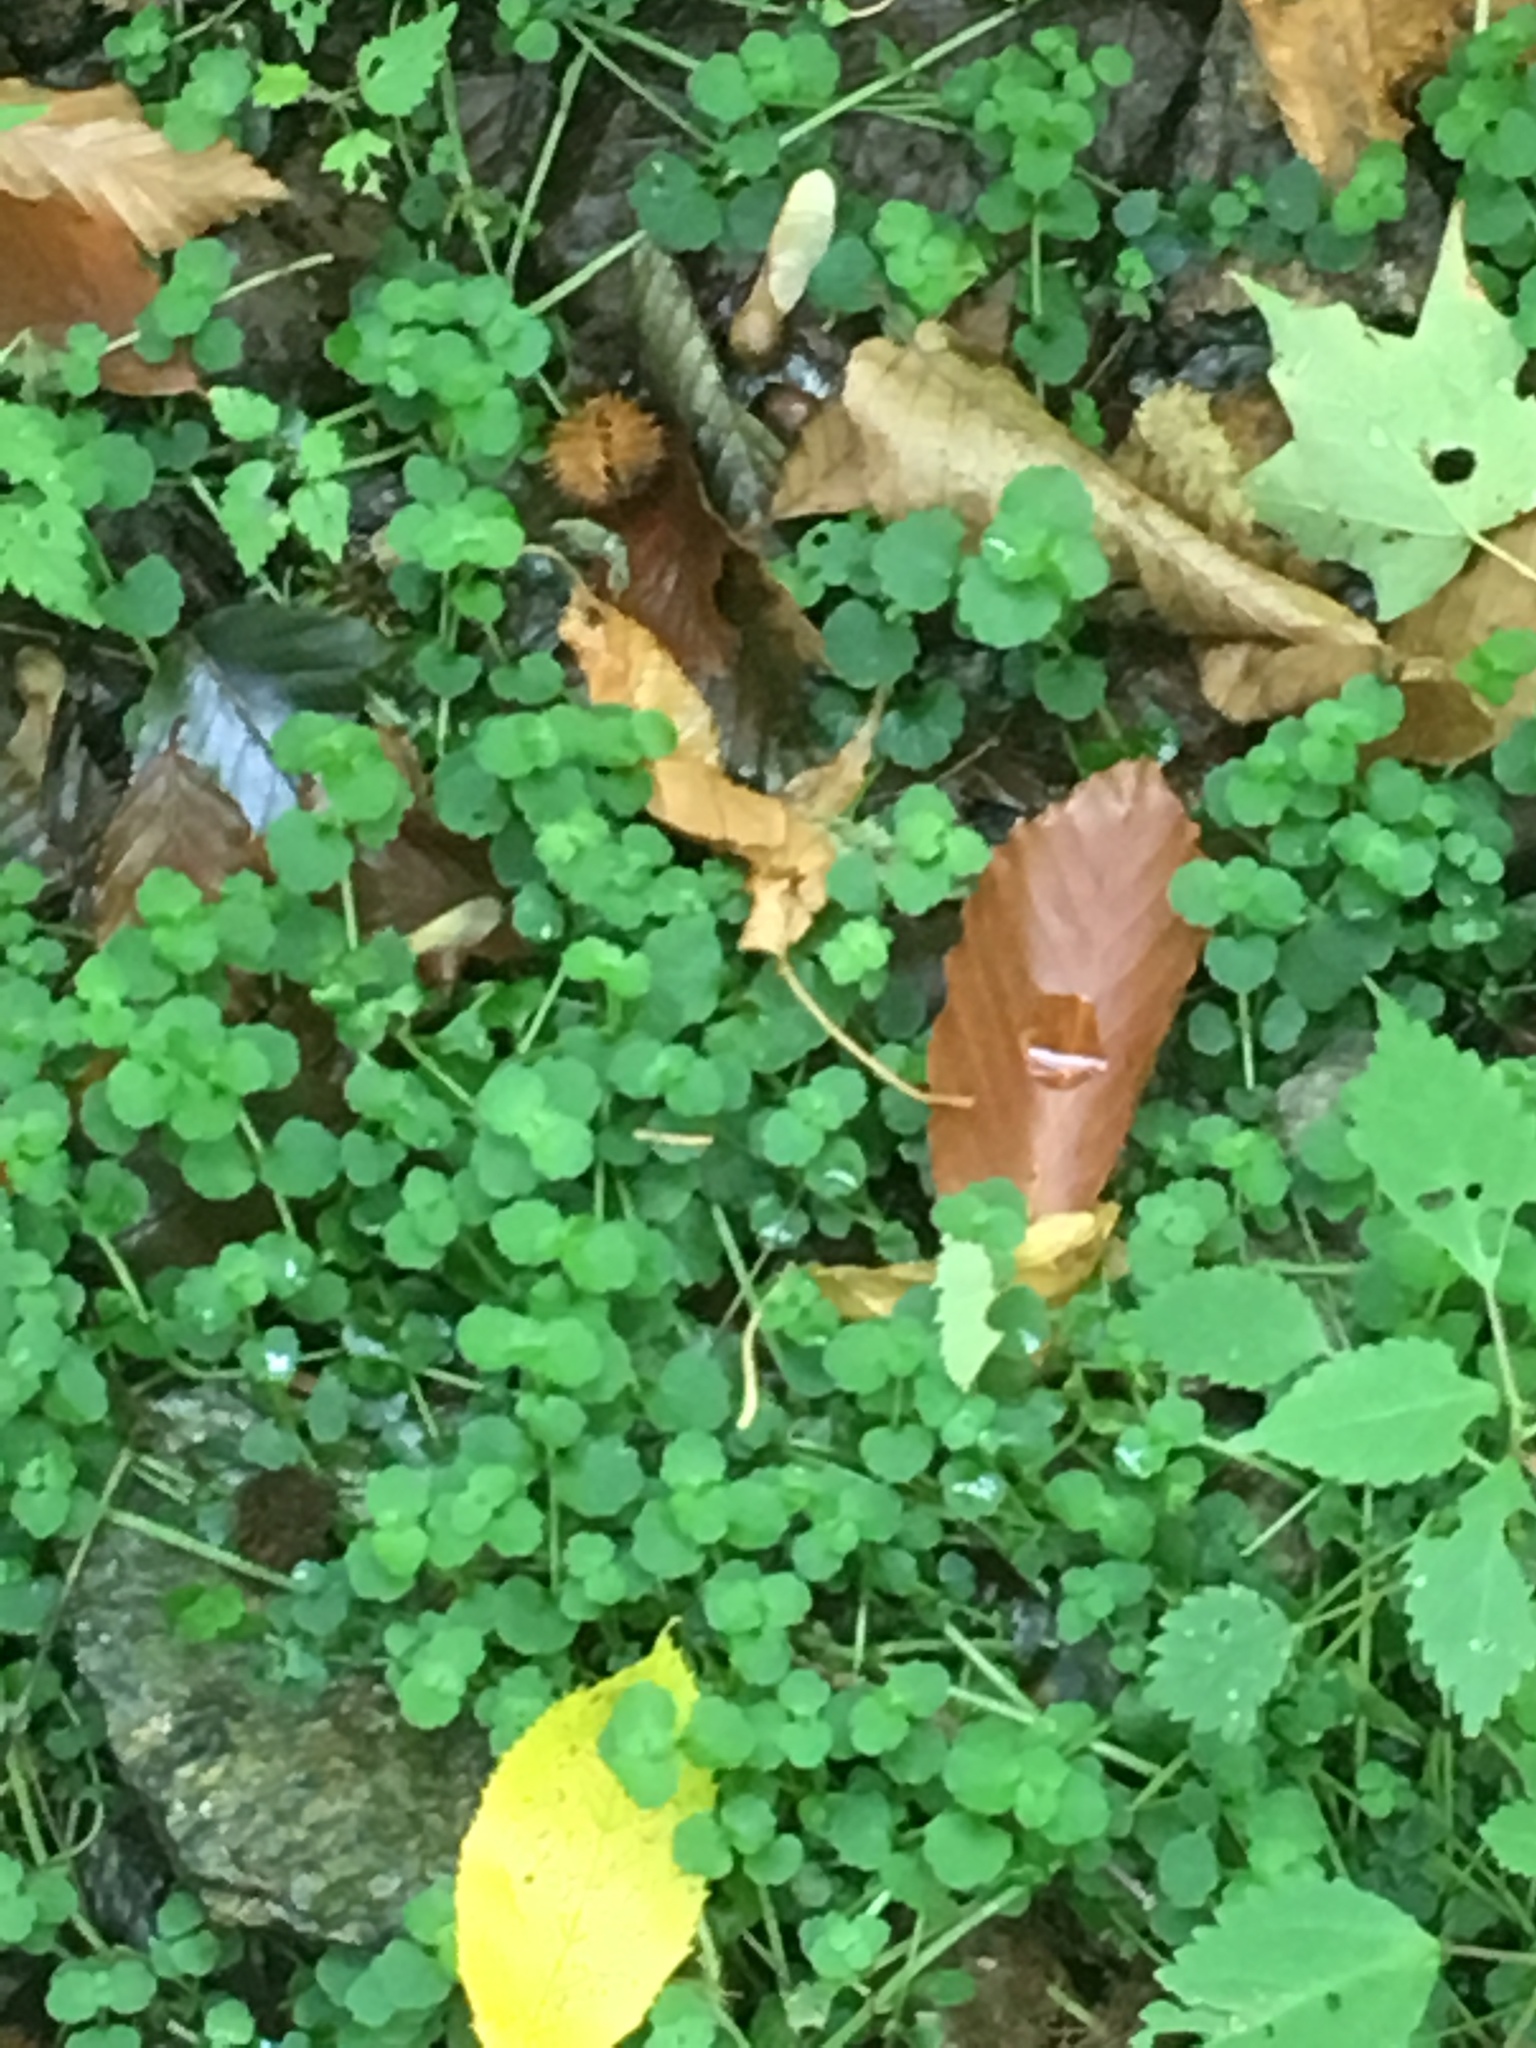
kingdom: Plantae
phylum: Tracheophyta
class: Magnoliopsida
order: Saxifragales
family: Saxifragaceae
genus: Chrysosplenium
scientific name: Chrysosplenium americanum
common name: American golden-saxifrage
